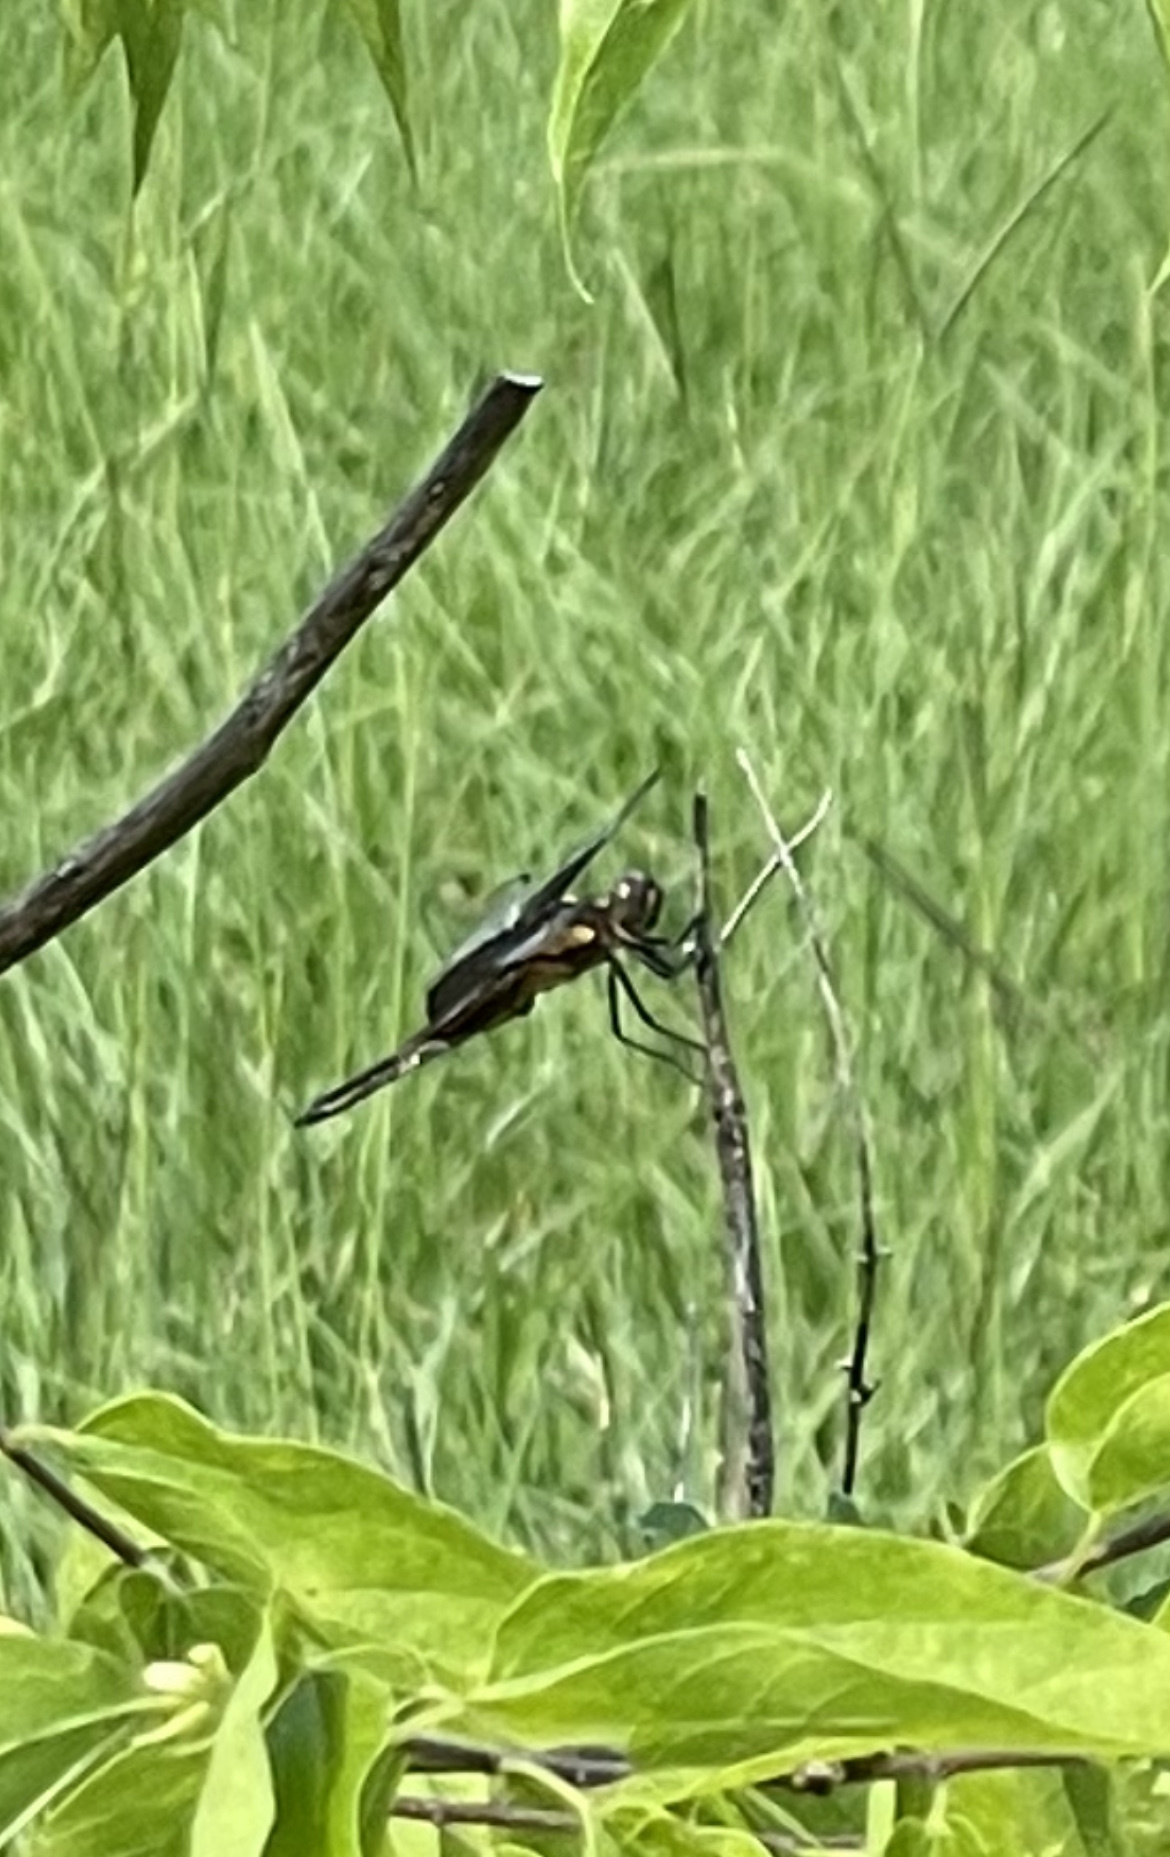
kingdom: Animalia
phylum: Arthropoda
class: Insecta
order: Odonata
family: Libellulidae
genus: Libellula
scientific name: Libellula luctuosa
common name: Widow skimmer
